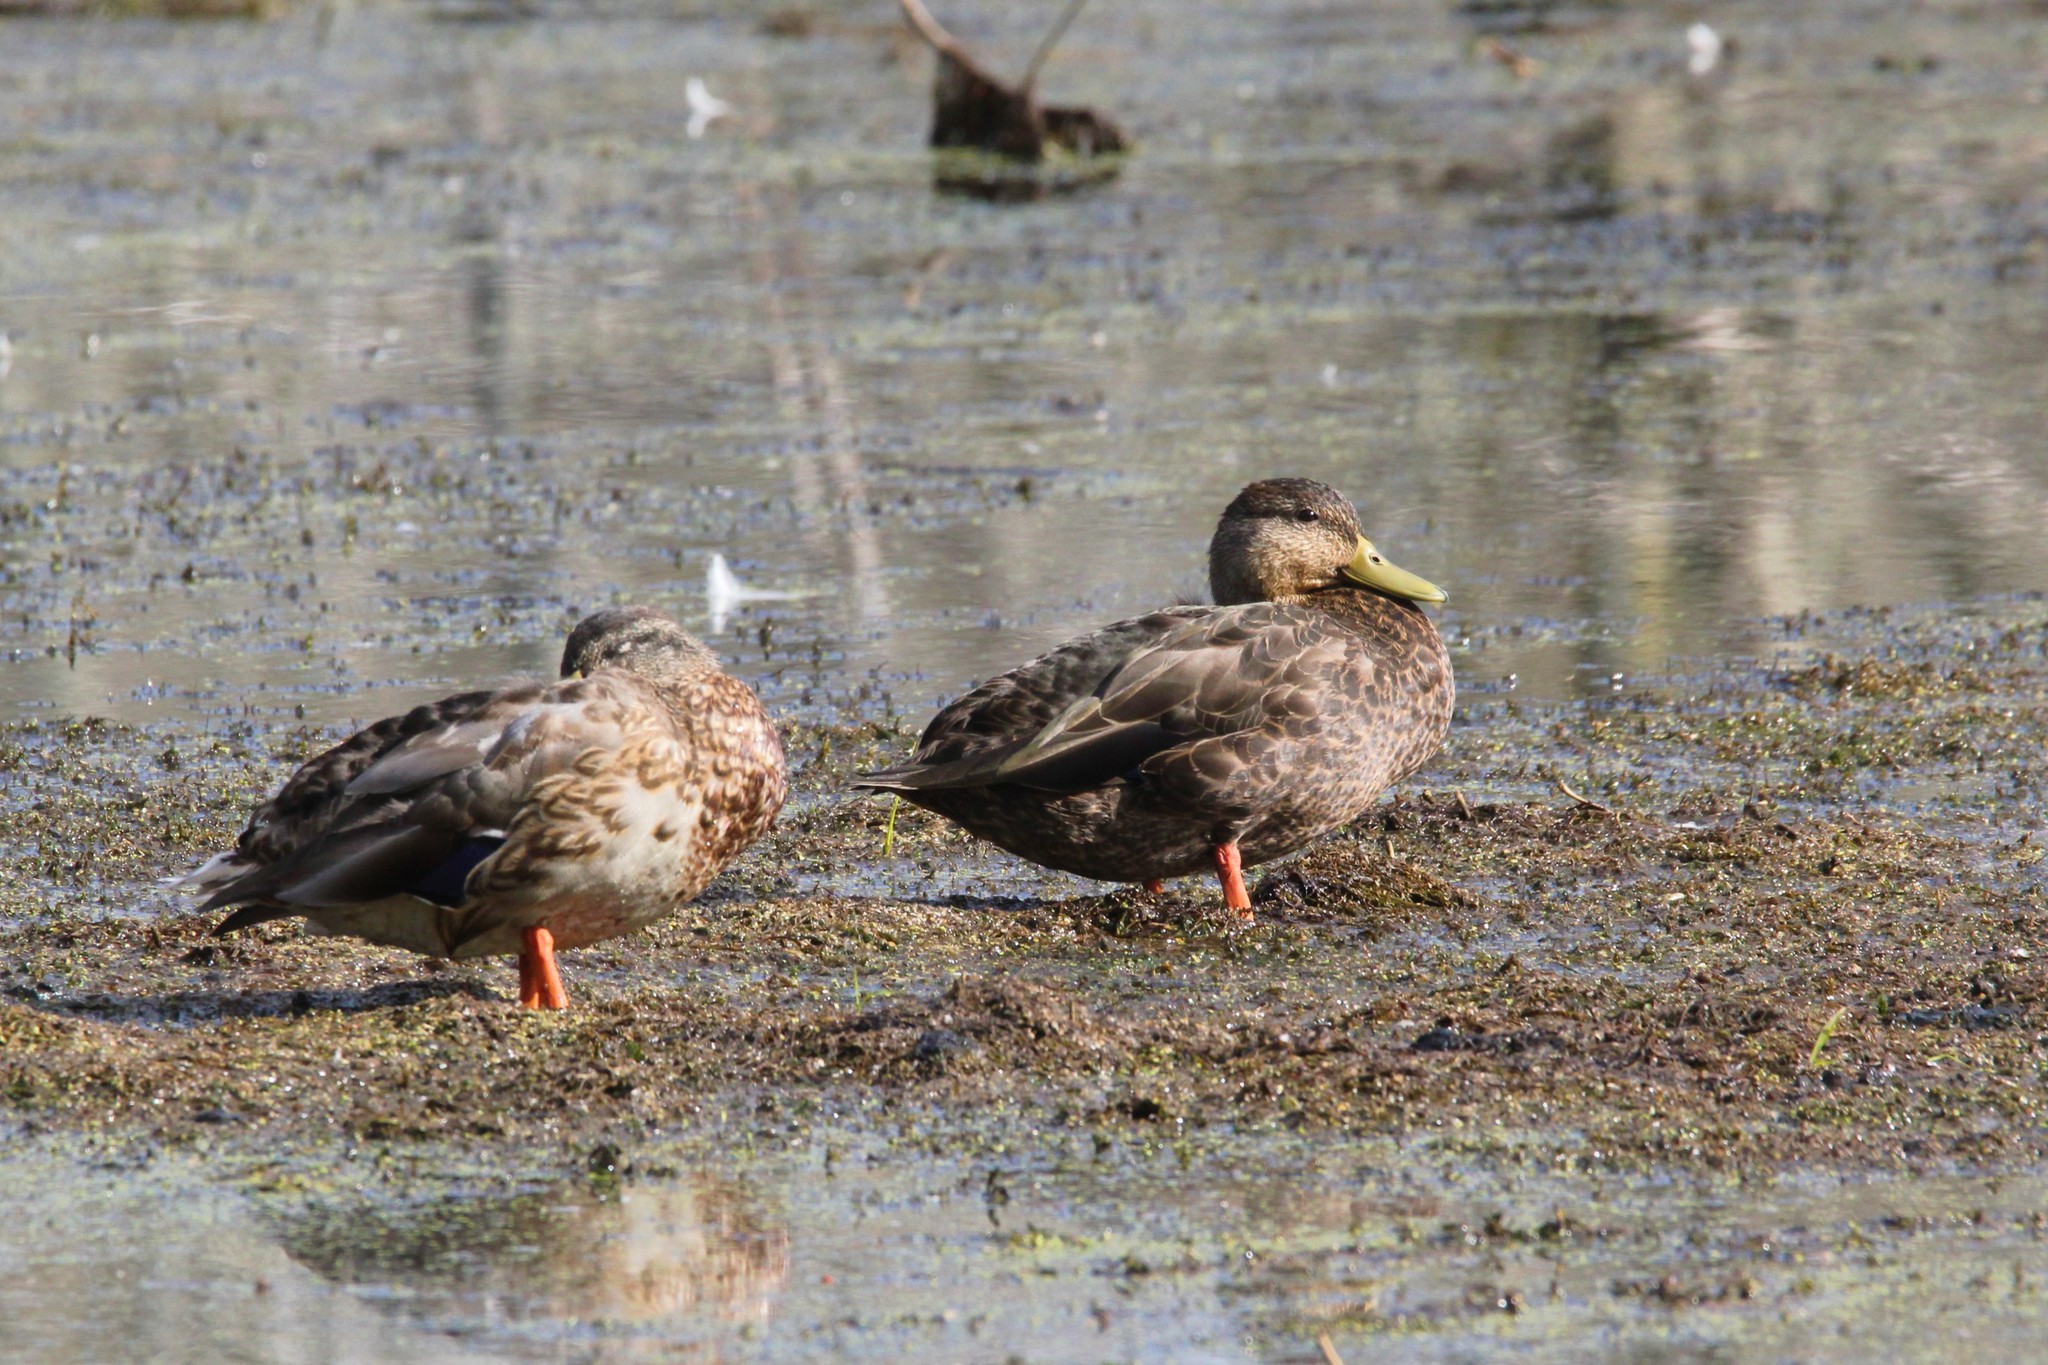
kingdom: Animalia
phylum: Chordata
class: Aves
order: Anseriformes
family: Anatidae
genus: Anas
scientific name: Anas rubripes
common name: American black duck
